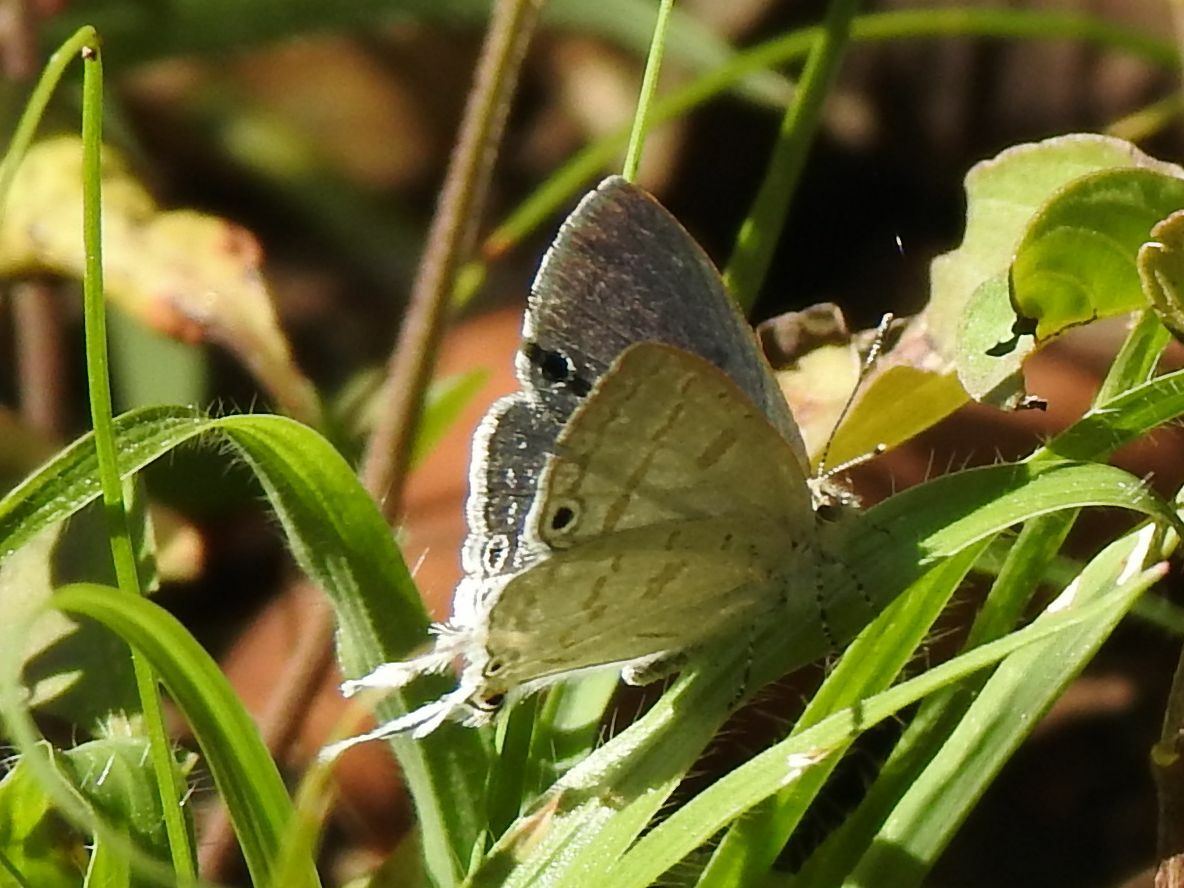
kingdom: Animalia
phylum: Arthropoda
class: Insecta
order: Lepidoptera
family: Lycaenidae
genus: Leptomyrina
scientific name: Leptomyrina hirundo
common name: Tailed black-eye
